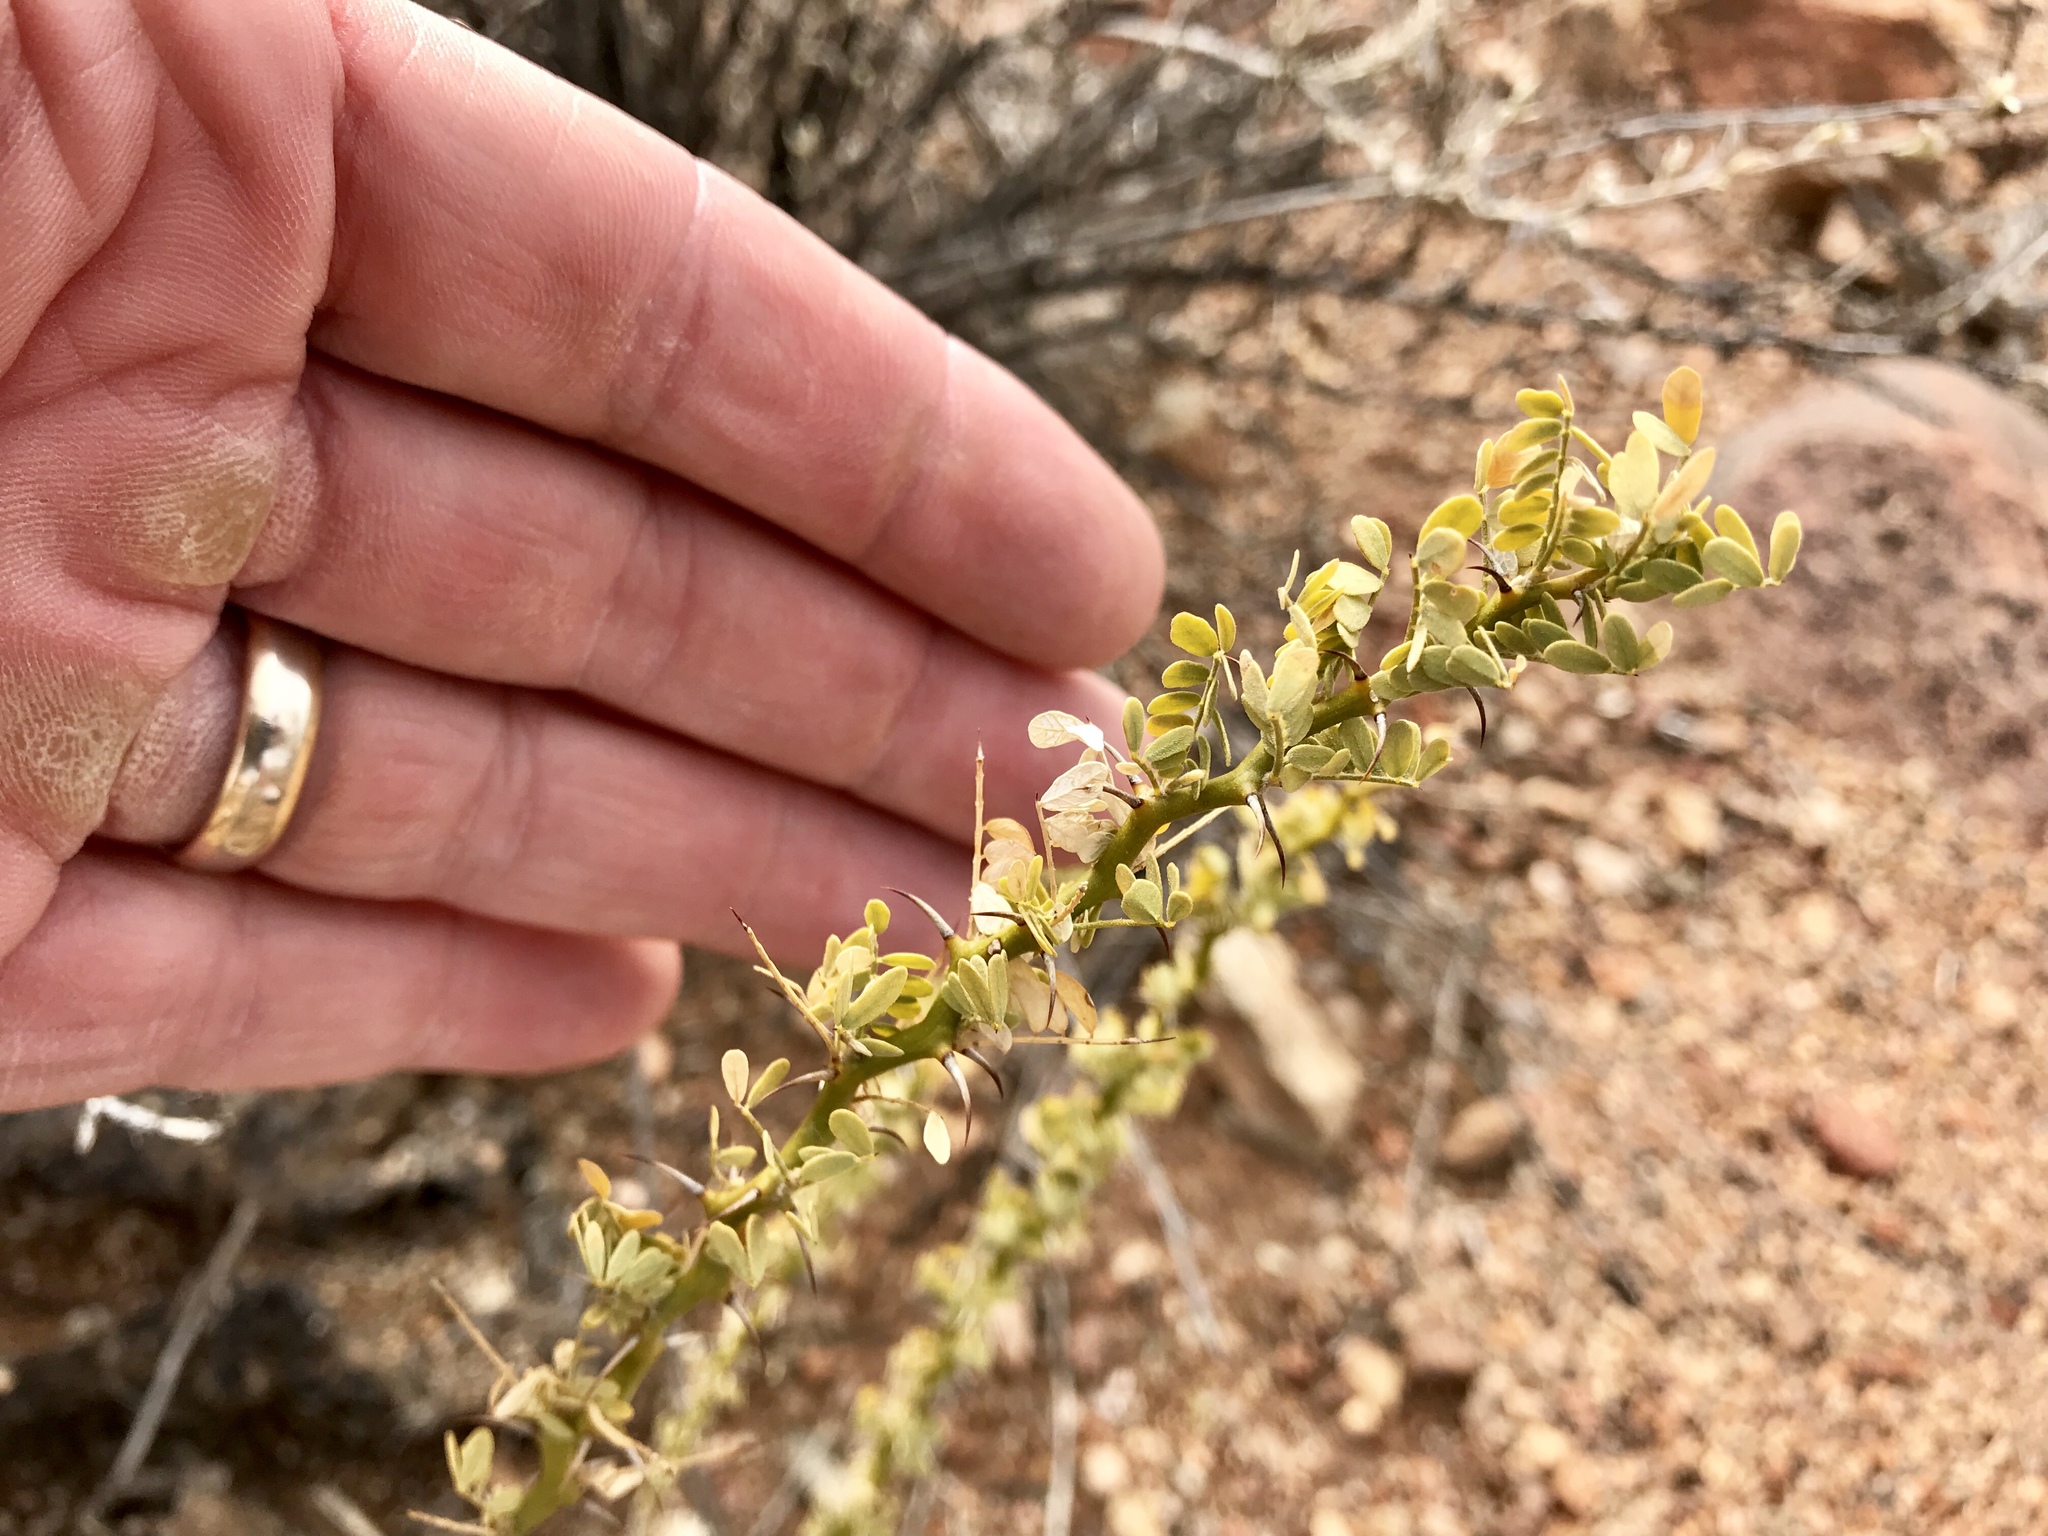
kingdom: Plantae
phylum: Tracheophyta
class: Magnoliopsida
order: Fabales
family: Fabaceae
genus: Olneya
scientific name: Olneya tesota
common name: Desert ironwood
